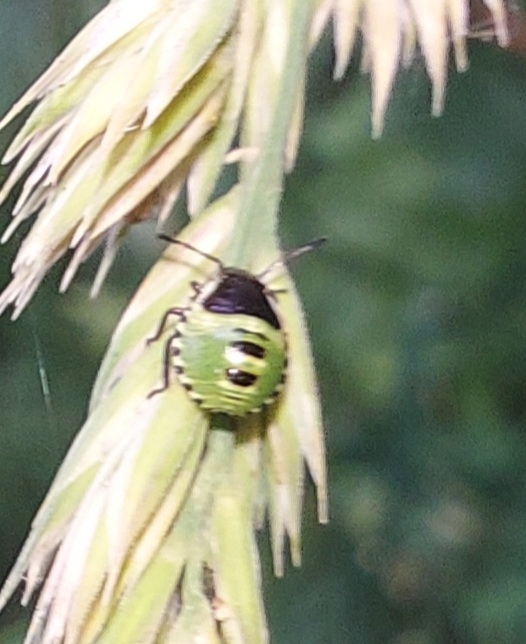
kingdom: Animalia
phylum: Arthropoda
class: Insecta
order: Hemiptera
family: Pentatomidae
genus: Palomena
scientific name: Palomena prasina
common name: Green shieldbug
